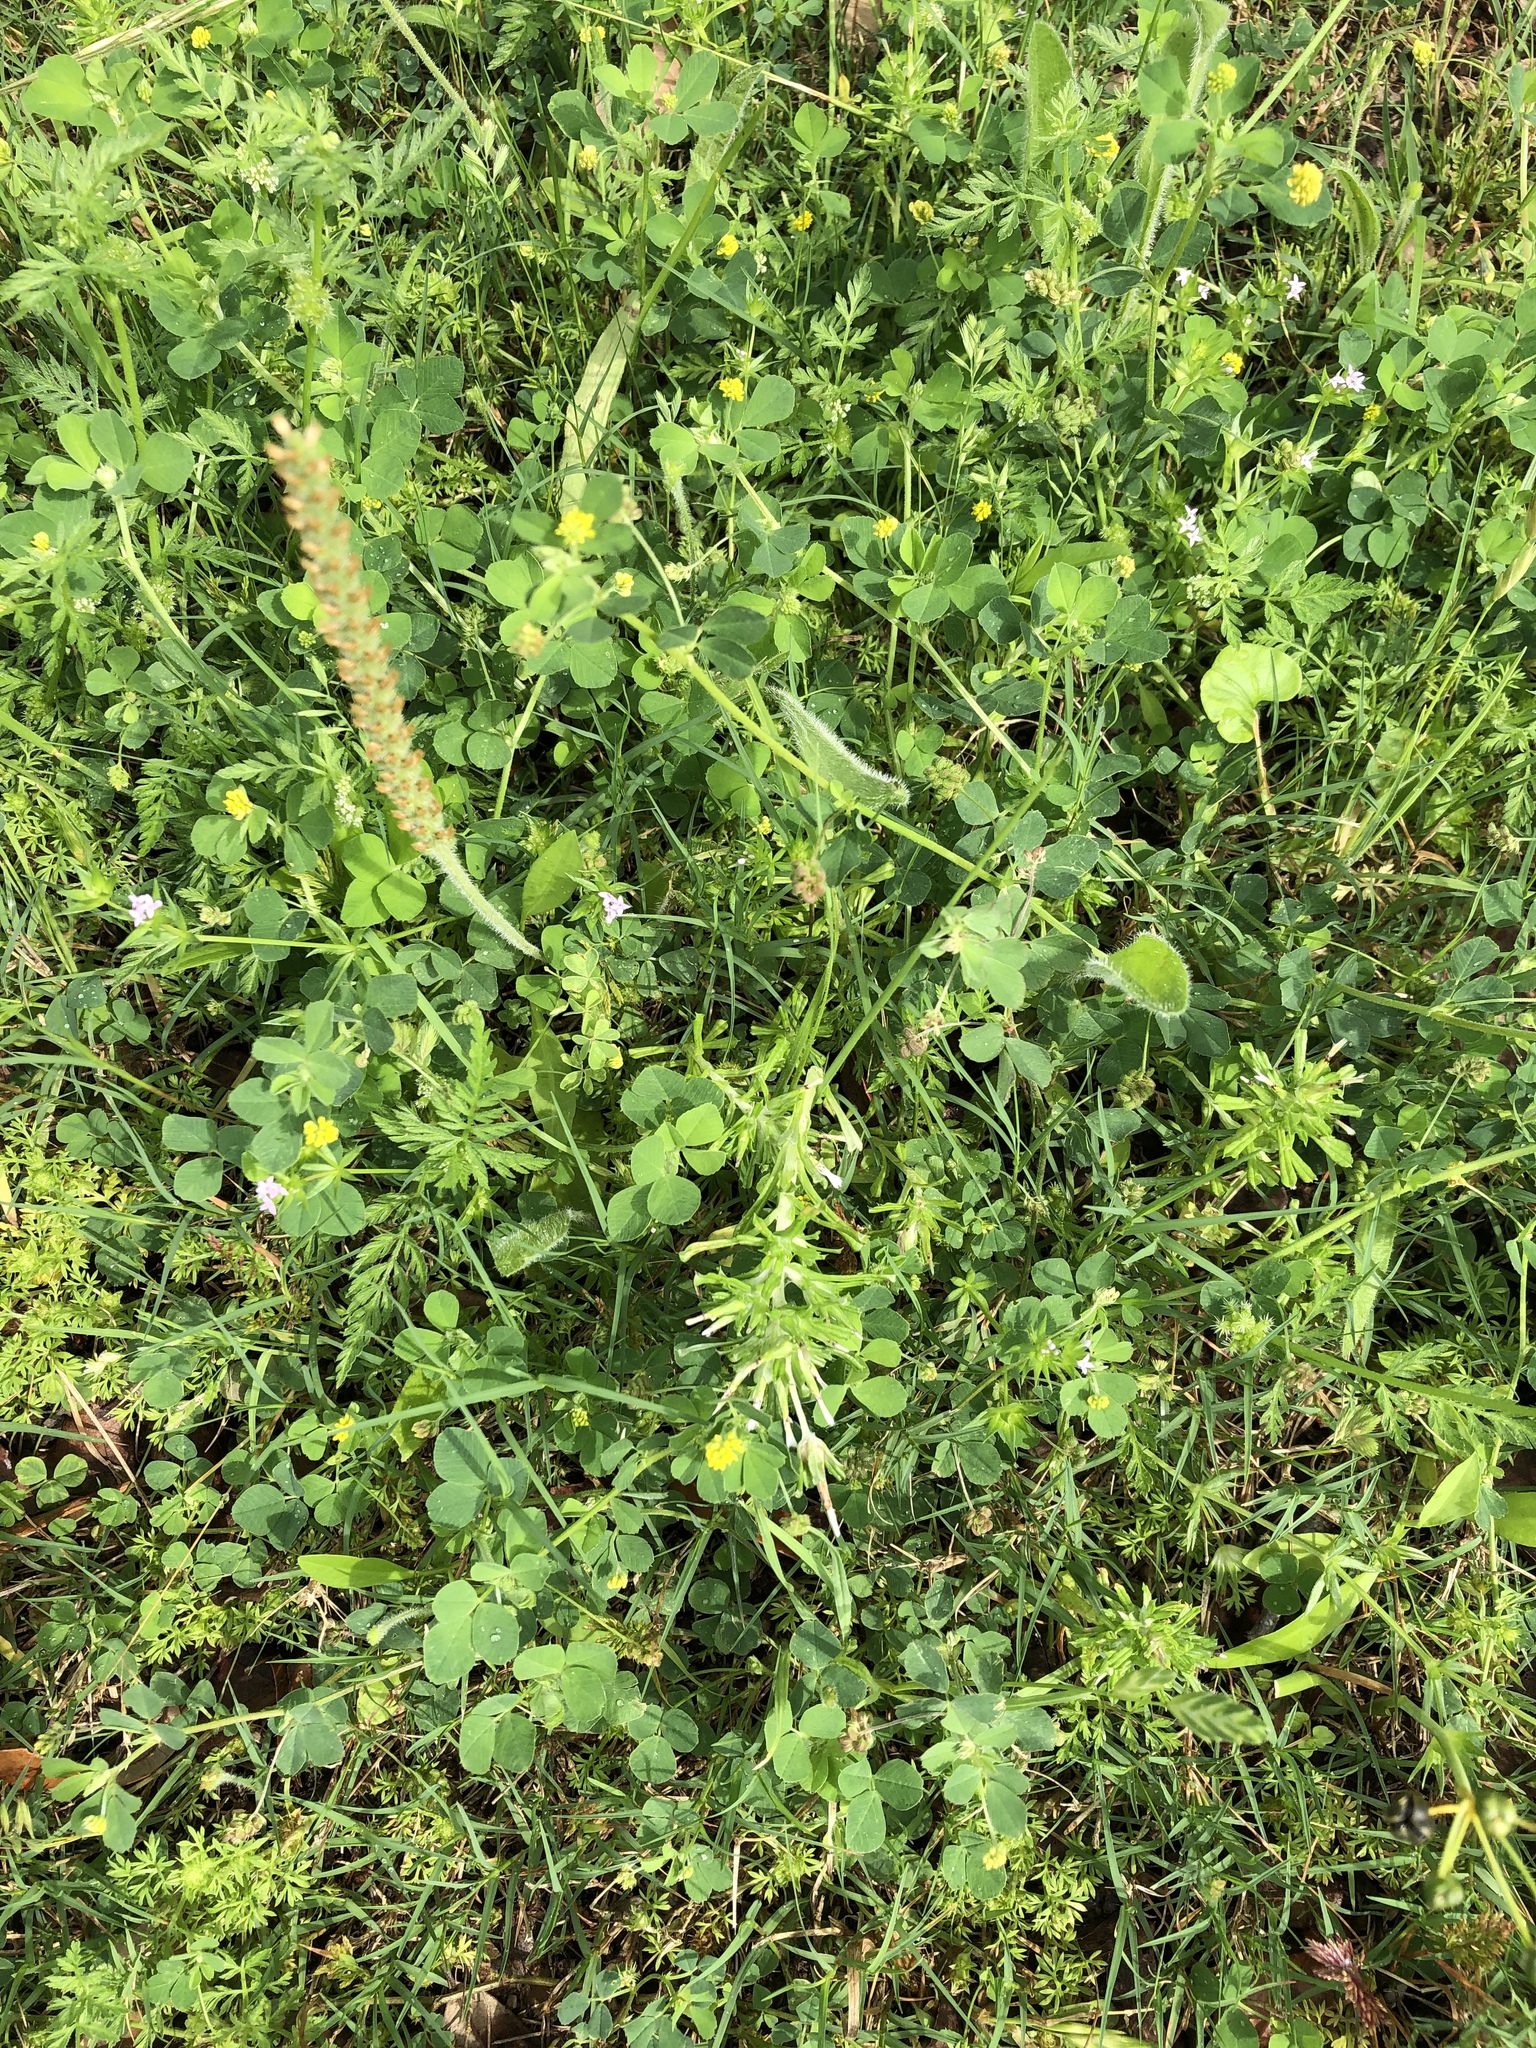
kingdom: Plantae
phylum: Tracheophyta
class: Magnoliopsida
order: Asterales
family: Asteraceae
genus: Facelis
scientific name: Facelis retusa
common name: Annual trampweed
